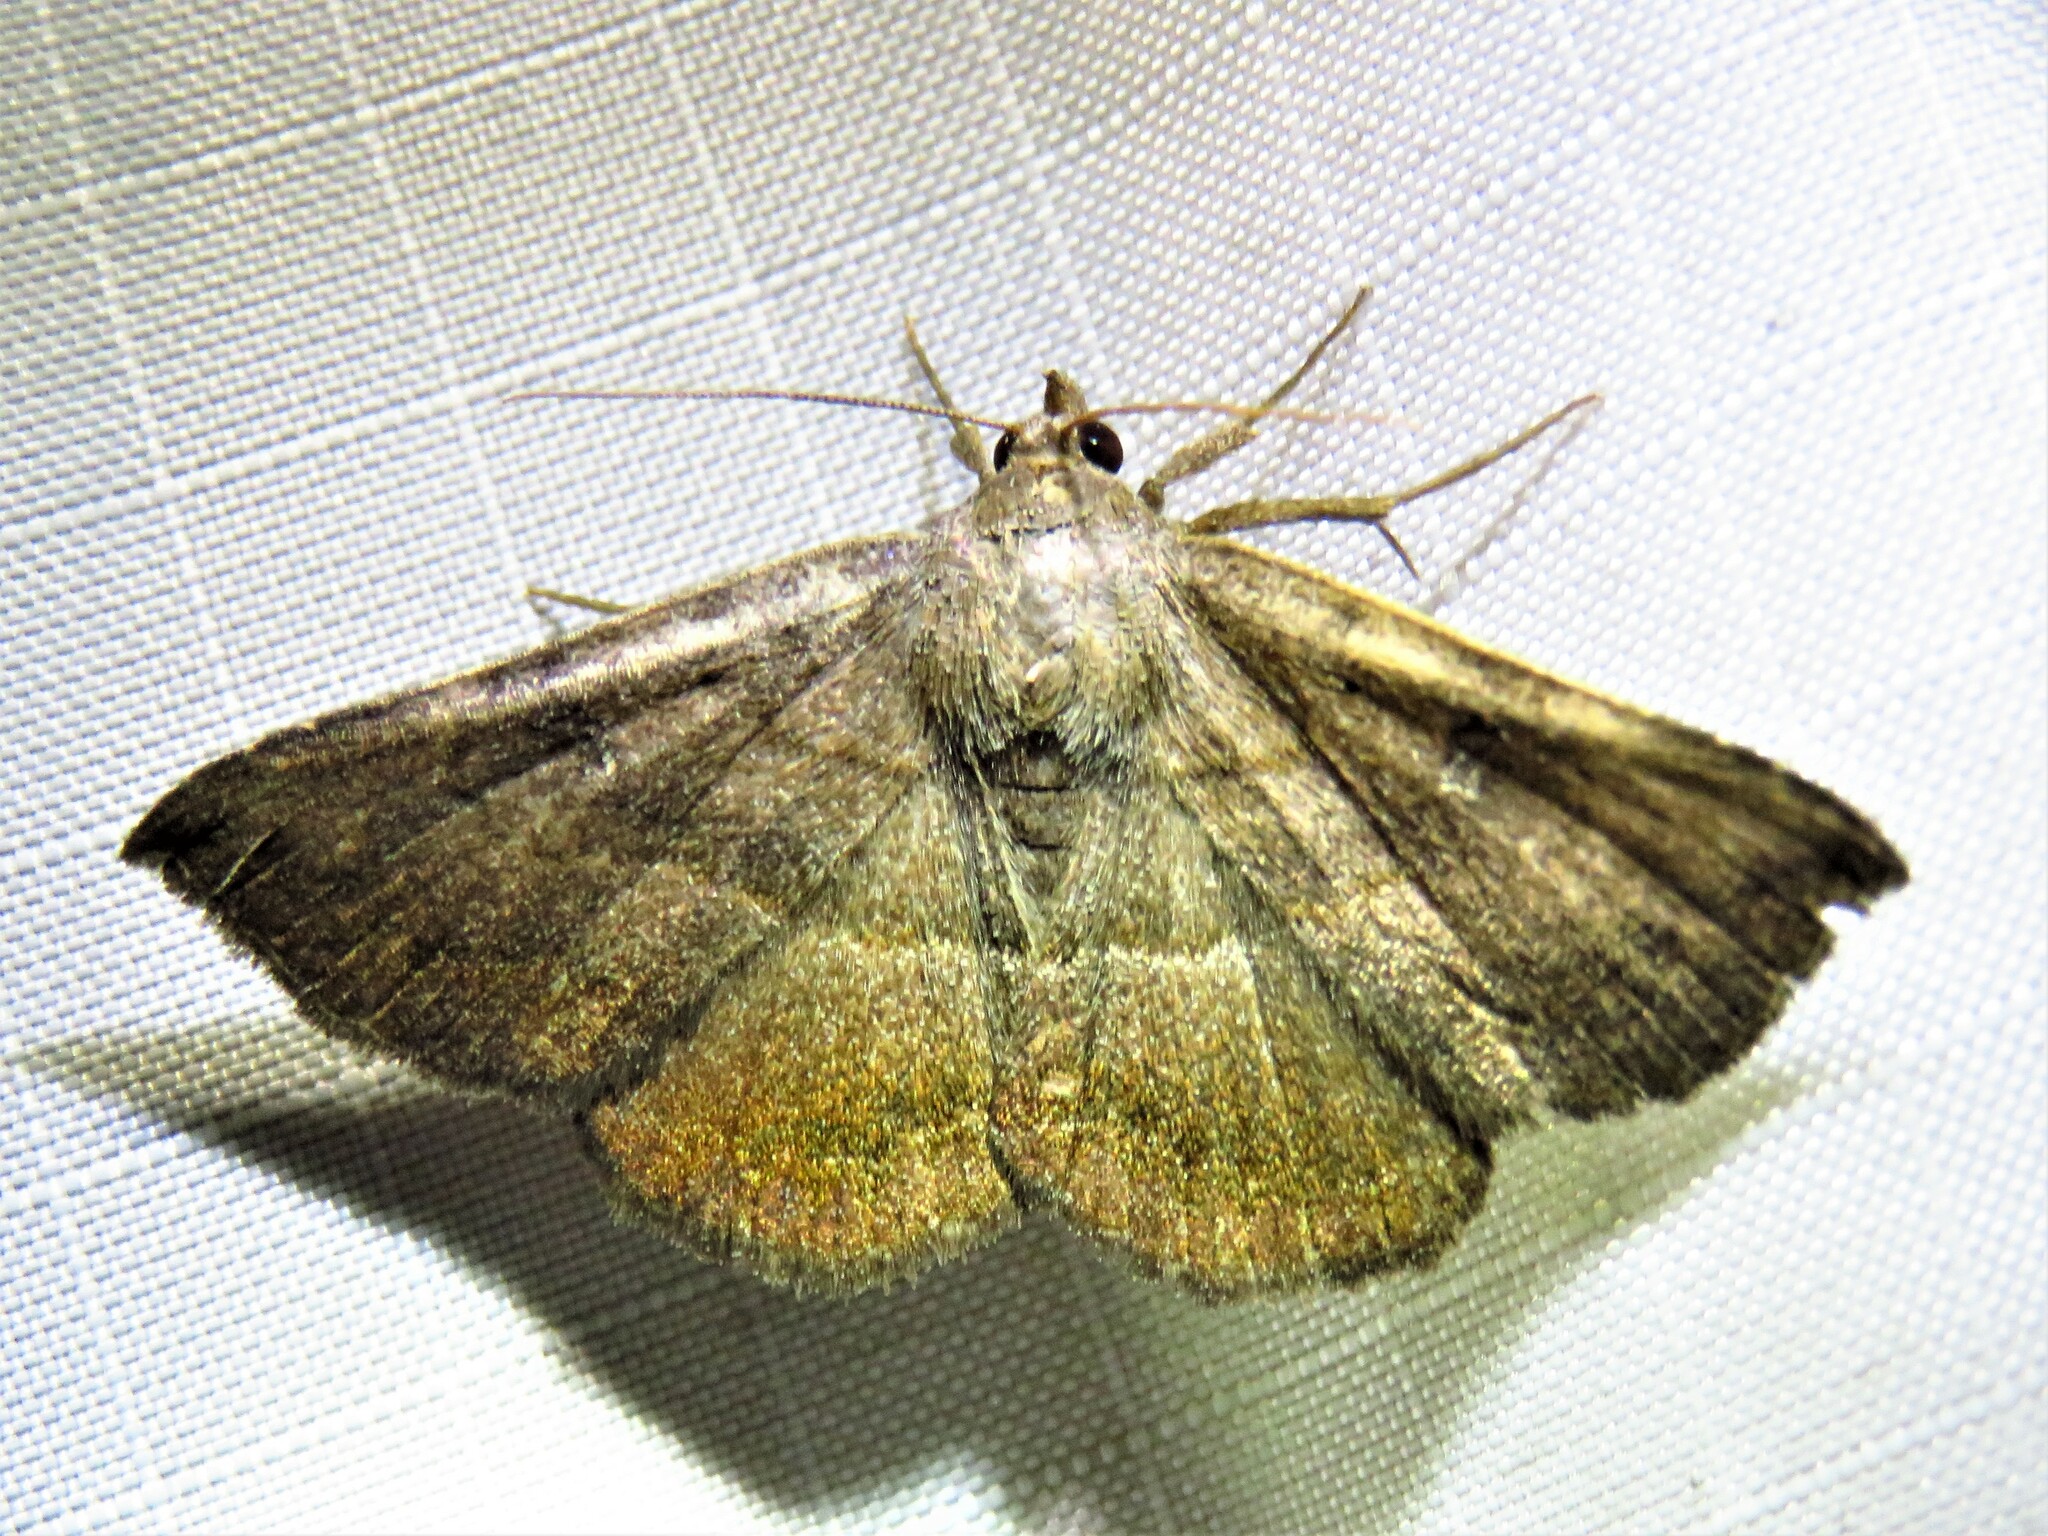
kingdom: Animalia
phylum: Arthropoda
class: Insecta
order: Lepidoptera
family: Erebidae
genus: Lesmone
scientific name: Lesmone detrahens
